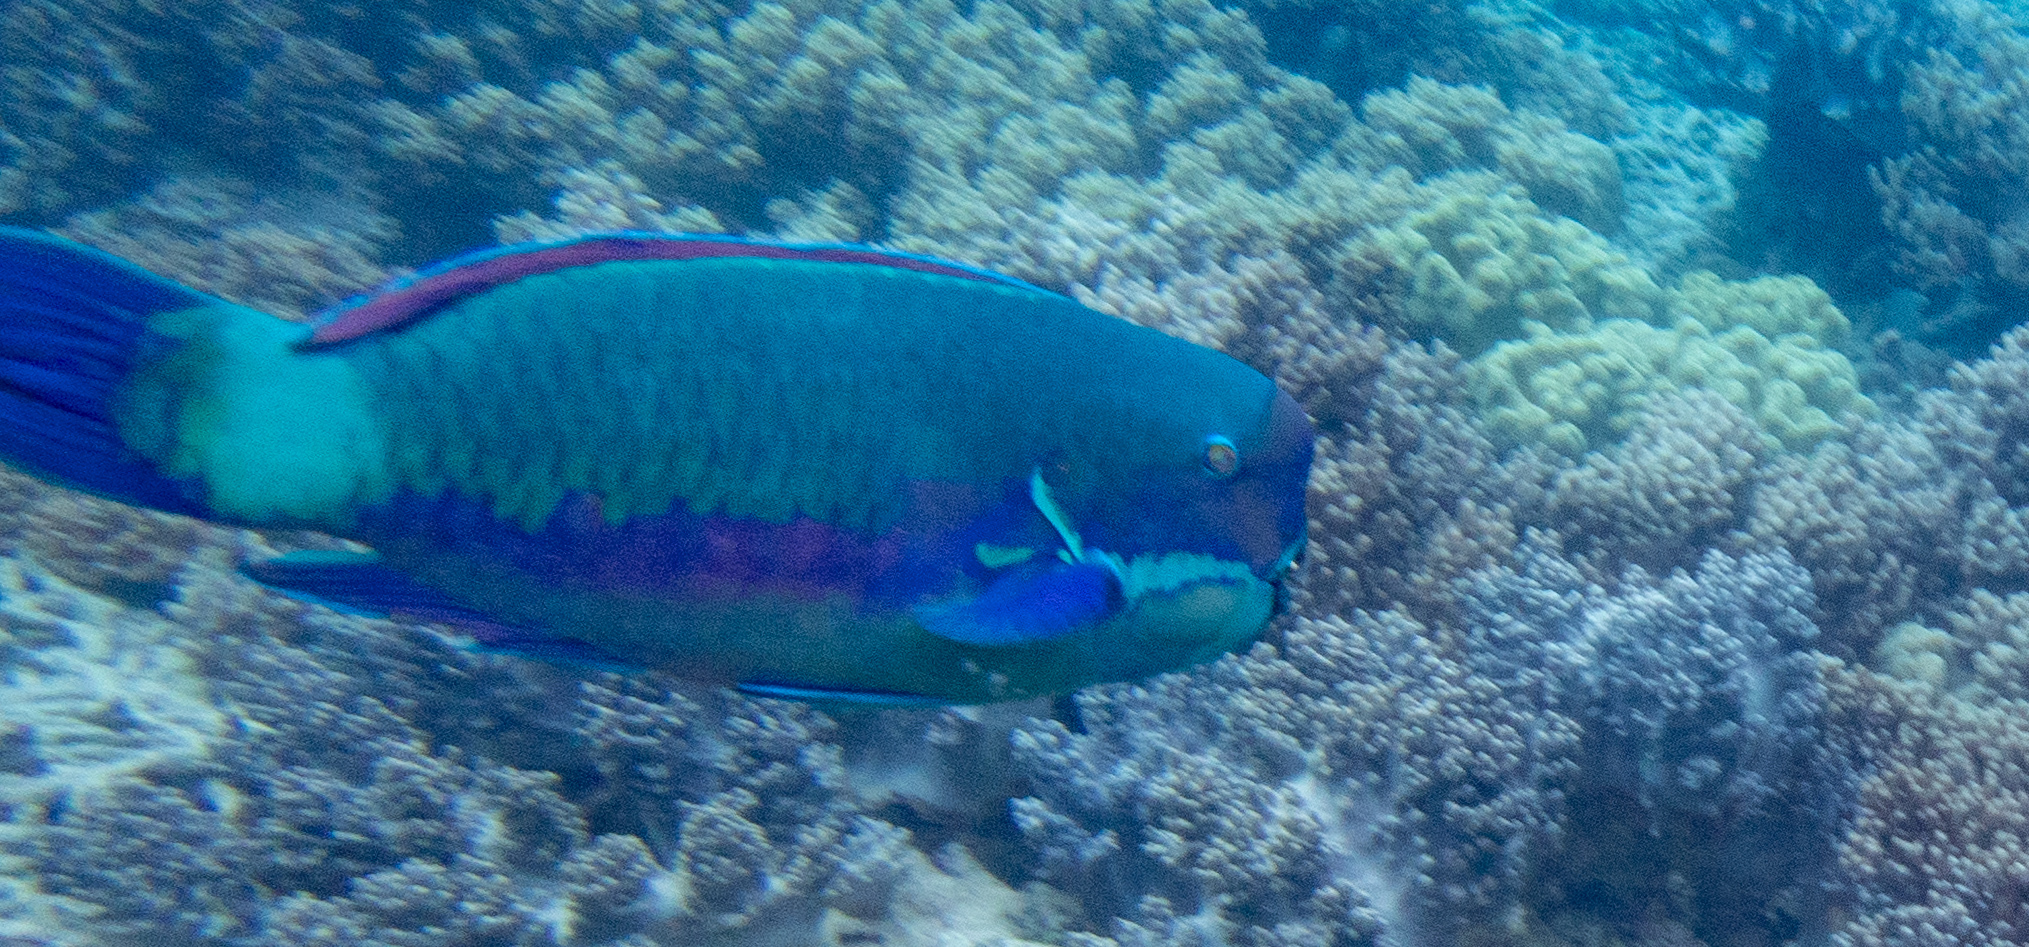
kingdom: Animalia
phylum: Chordata
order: Perciformes
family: Scaridae
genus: Chlorurus
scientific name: Chlorurus microrhinos
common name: Steephead parrotfish
